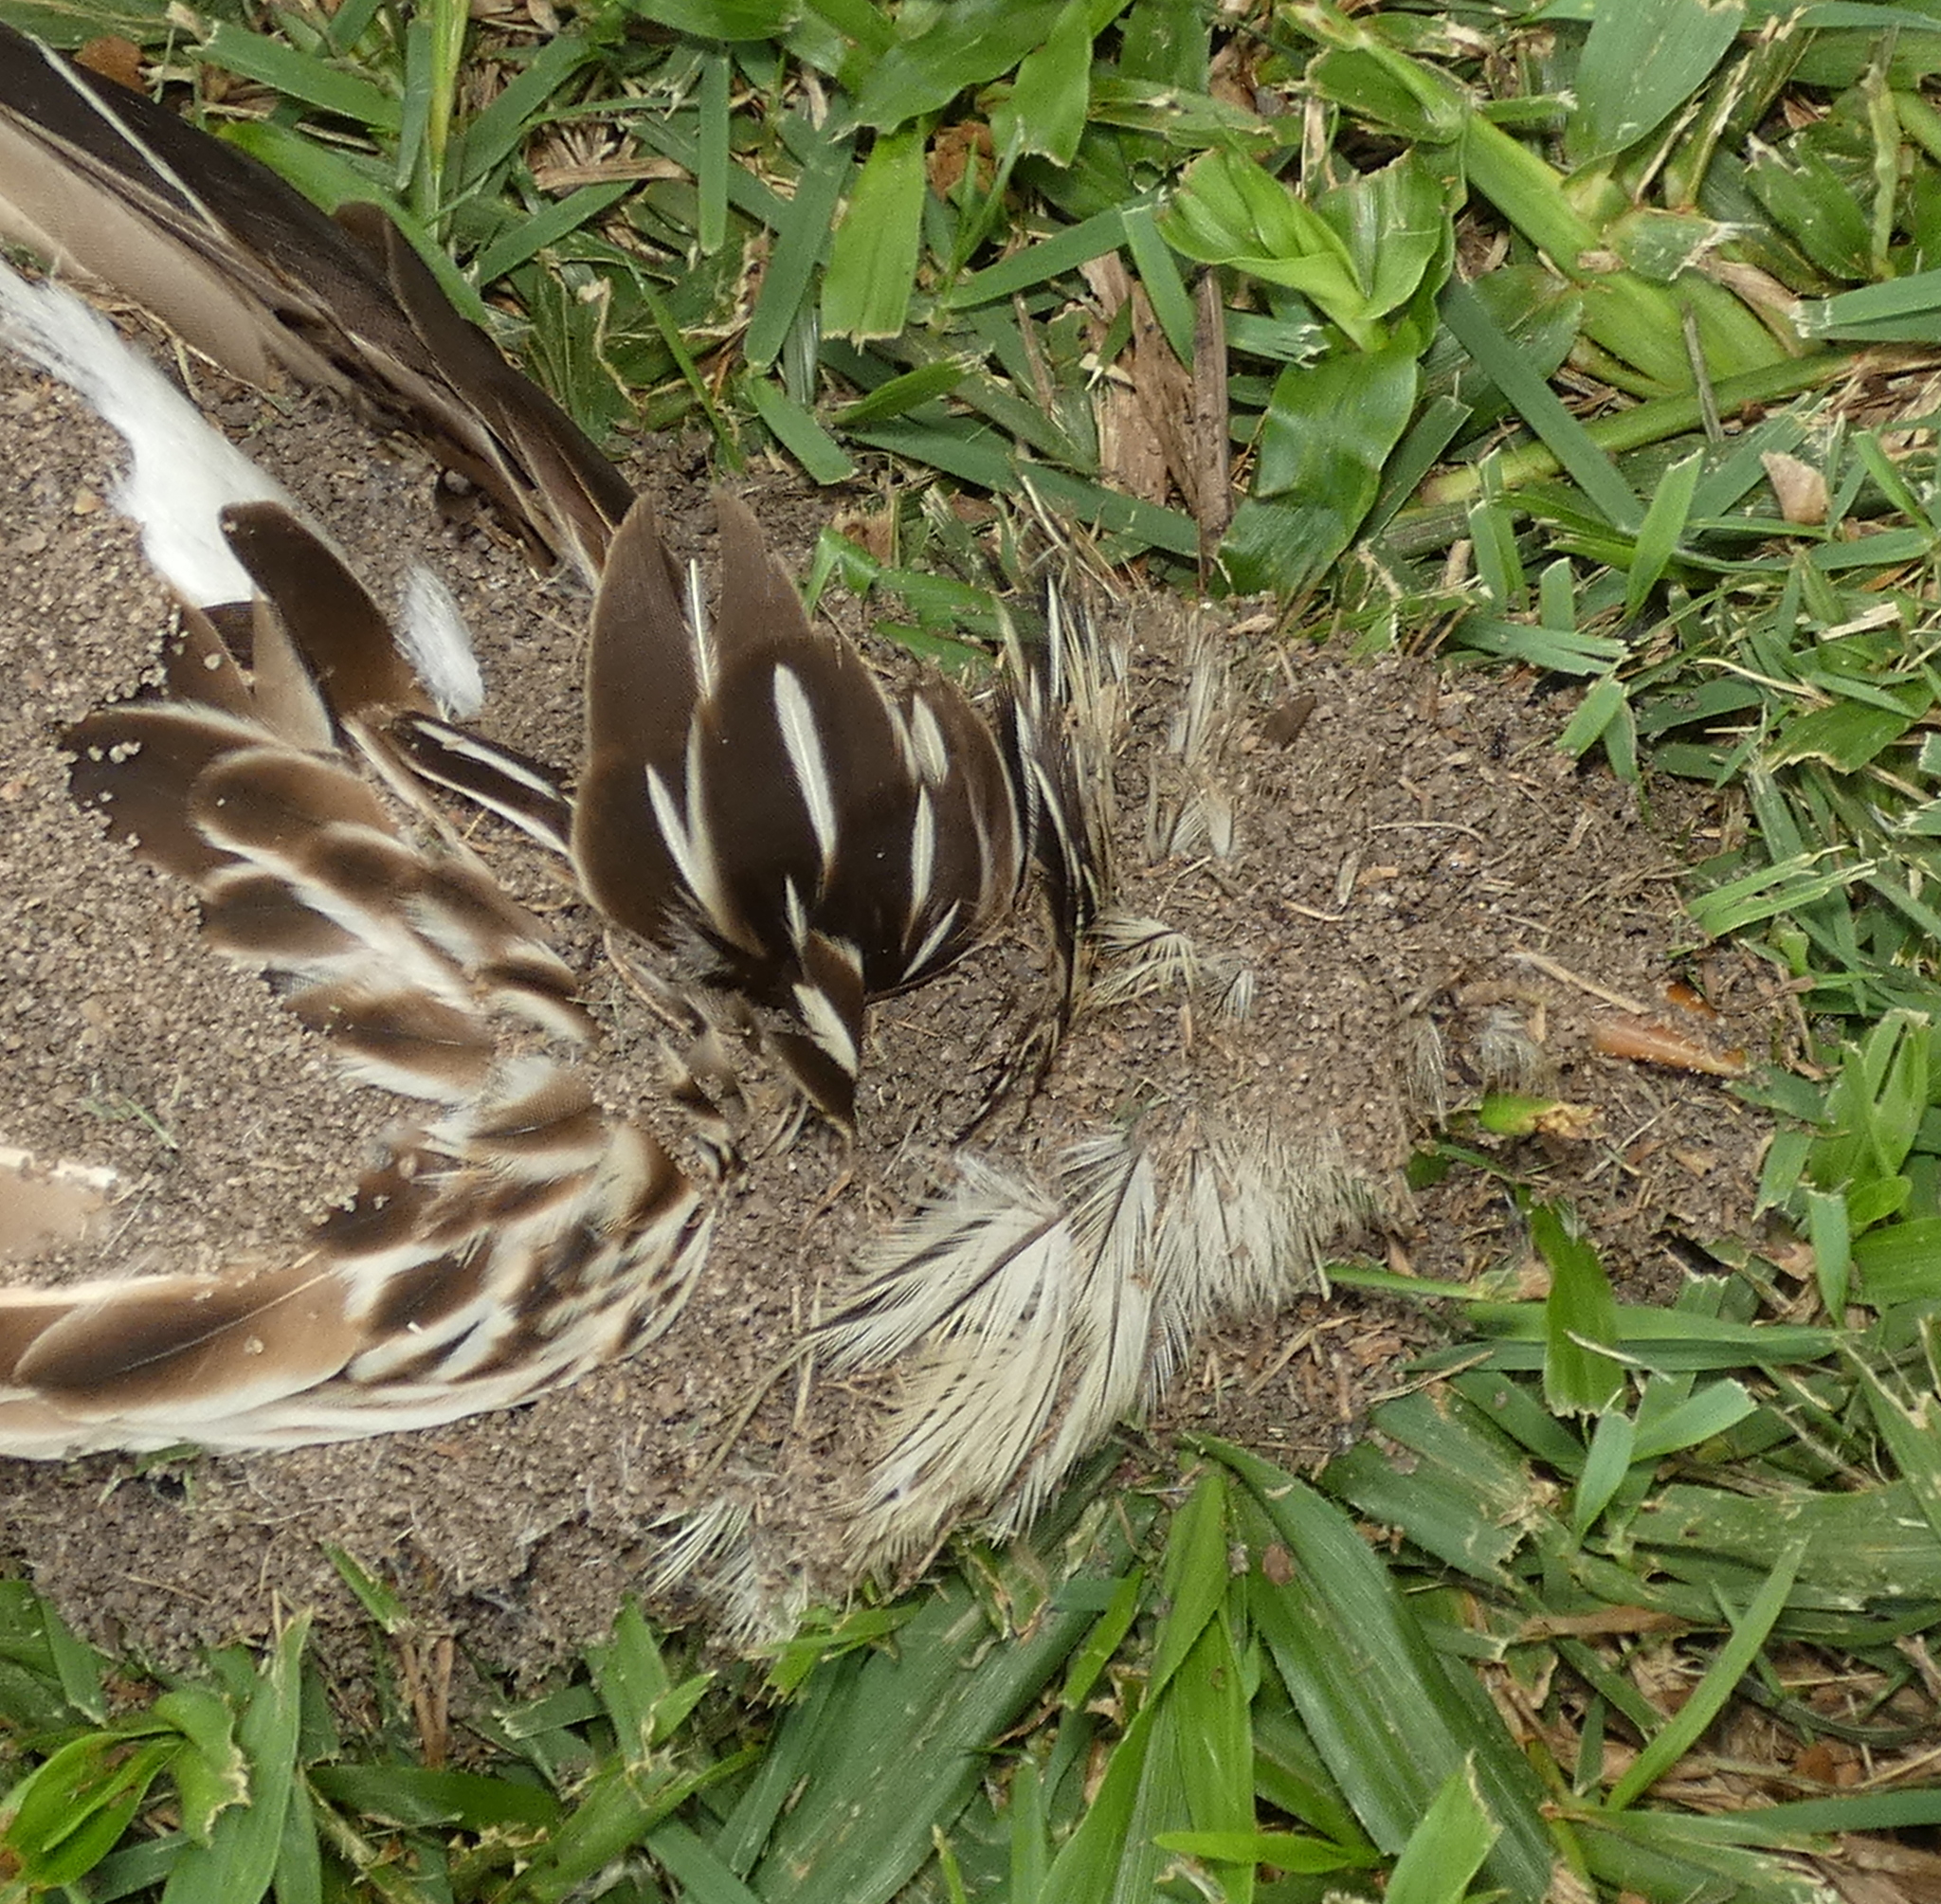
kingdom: Animalia
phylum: Chordata
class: Aves
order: Cuculiformes
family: Cuculidae
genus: Guira
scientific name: Guira guira
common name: Guira cuckoo
